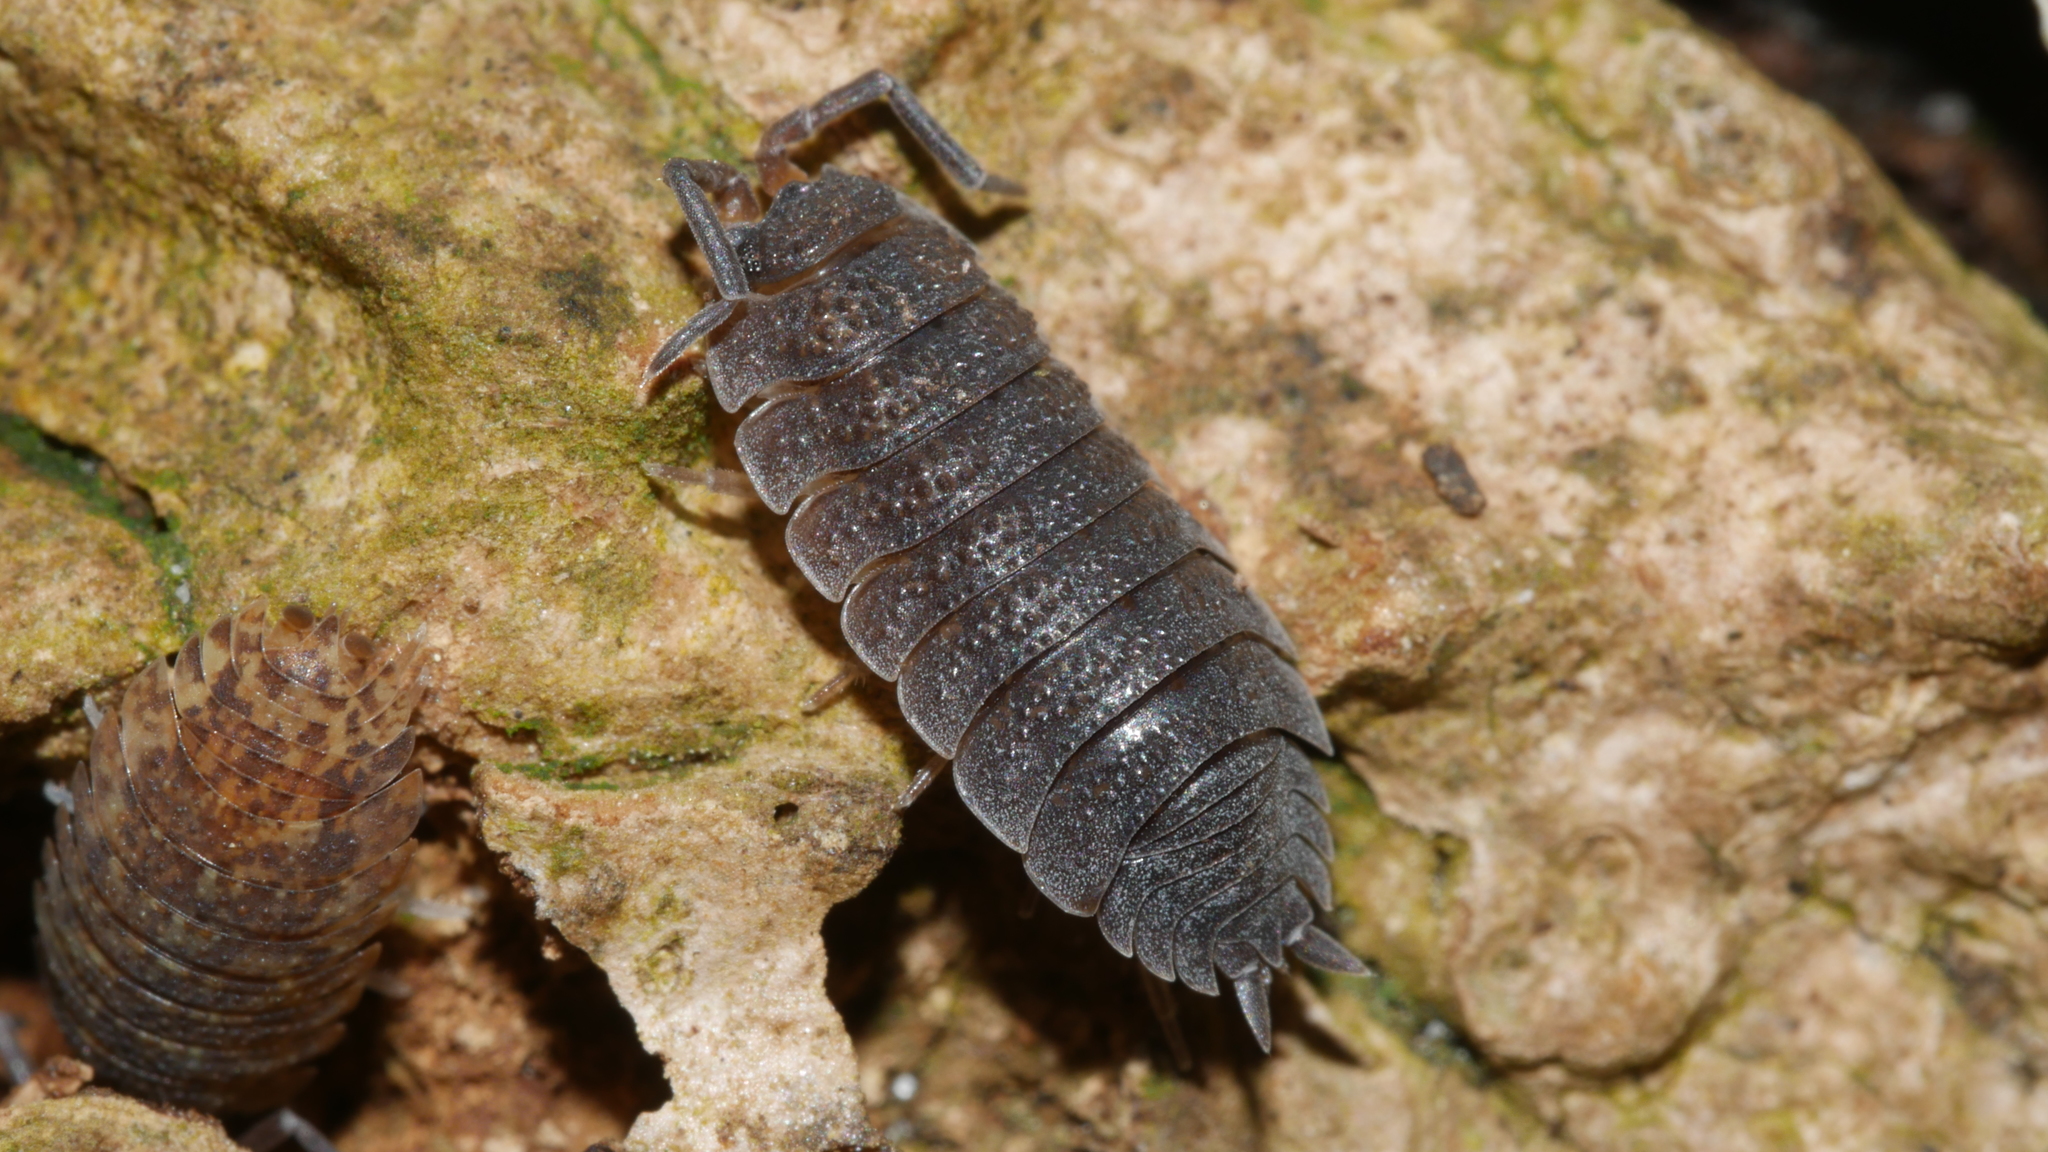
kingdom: Animalia
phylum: Arthropoda
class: Malacostraca
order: Isopoda
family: Porcellionidae
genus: Porcellio
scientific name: Porcellio scaber
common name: Common rough woodlouse
